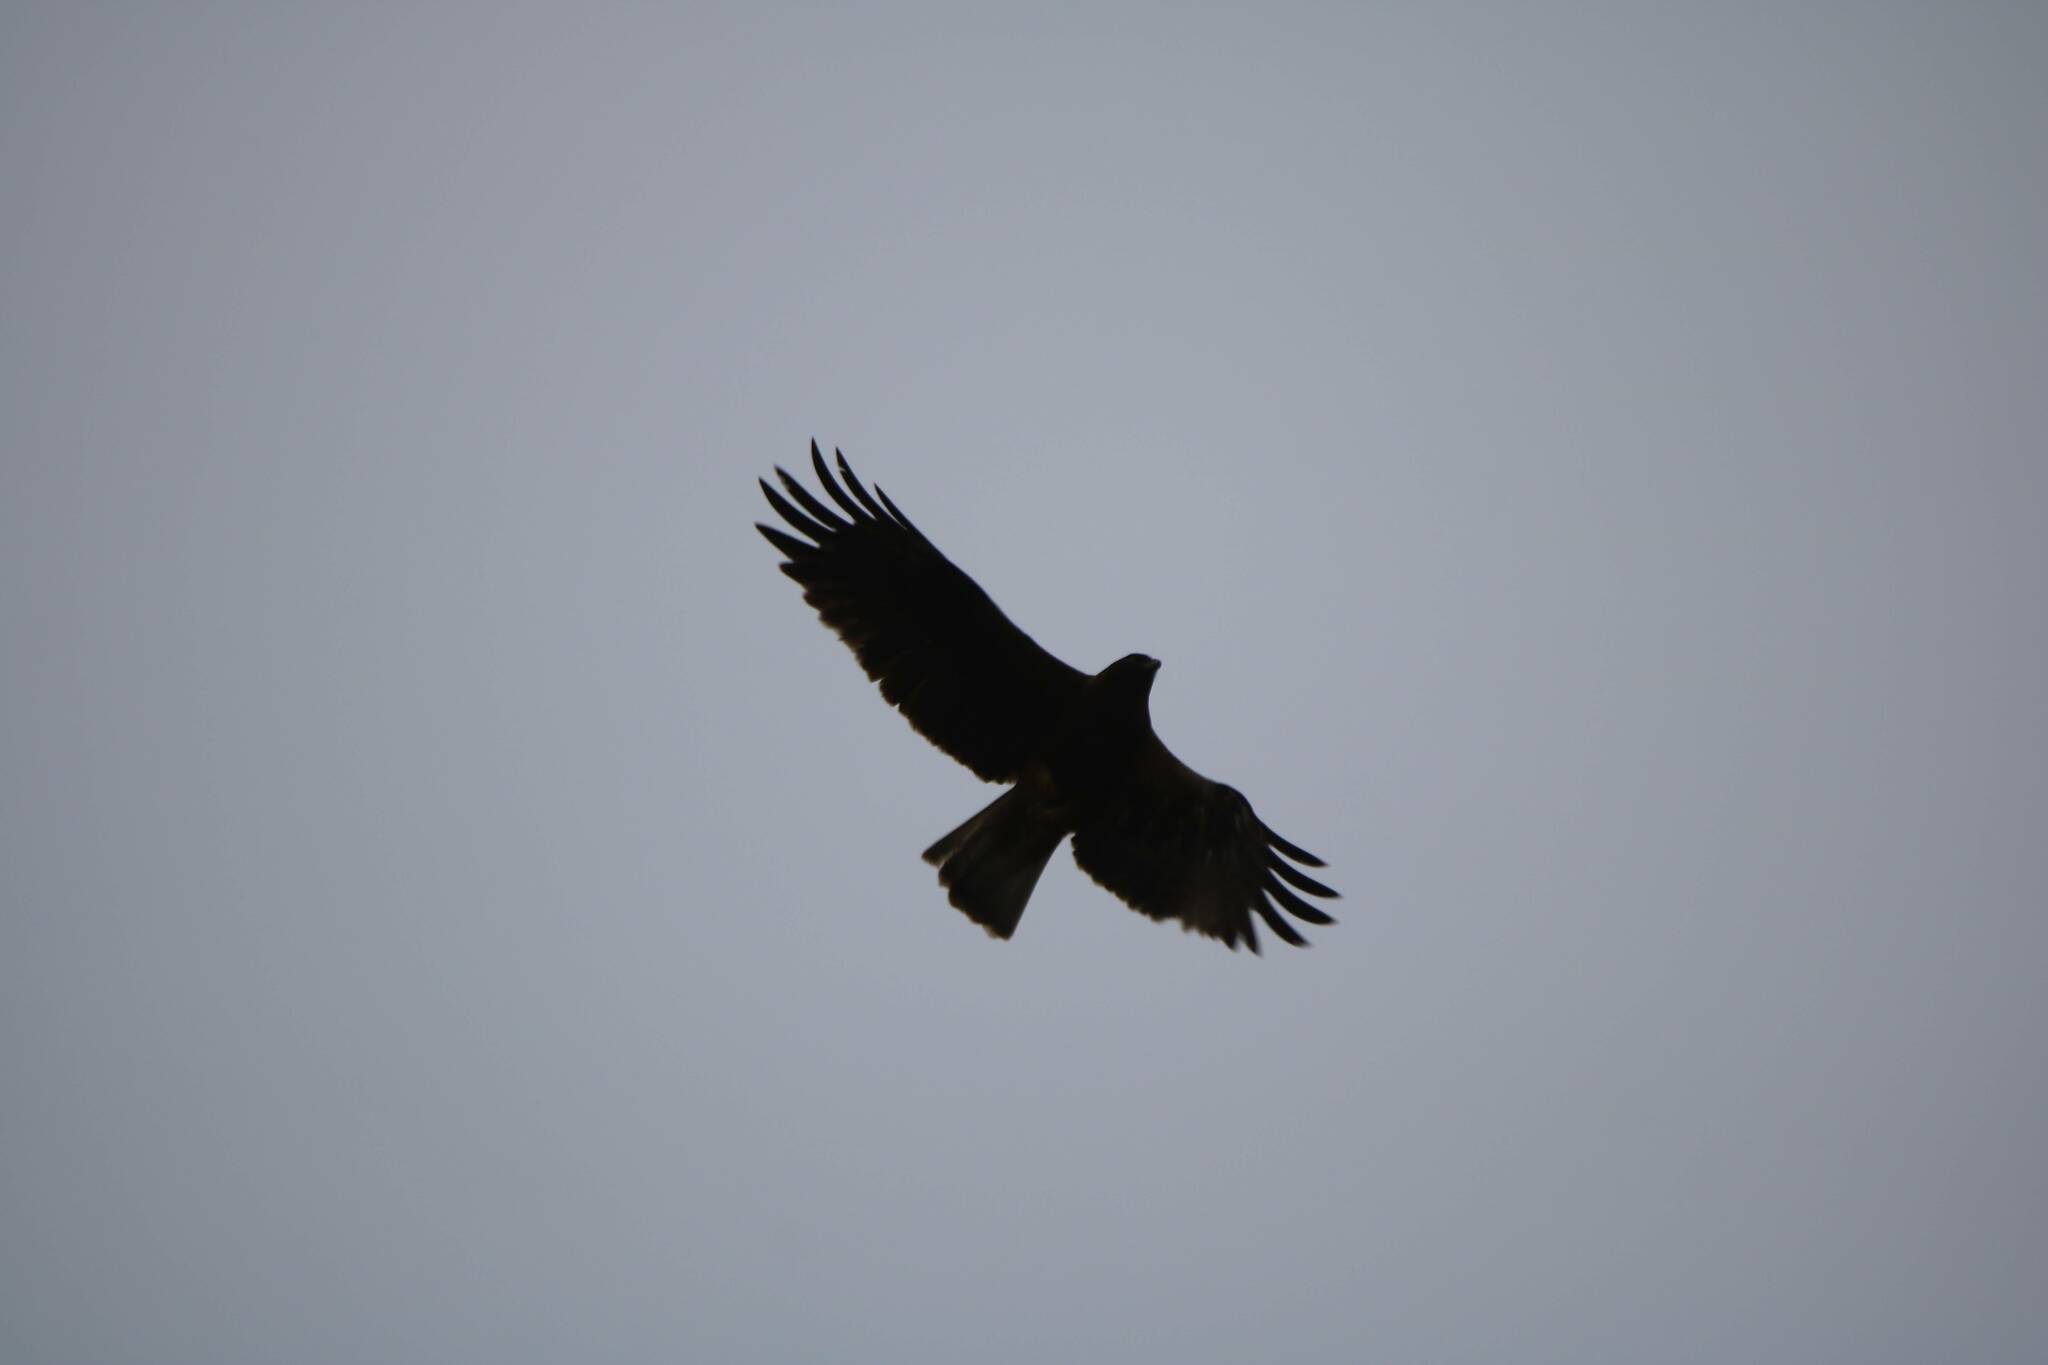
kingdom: Animalia
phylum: Chordata
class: Aves
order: Accipitriformes
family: Accipitridae
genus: Hieraaetus
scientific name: Hieraaetus pennatus
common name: Booted eagle
